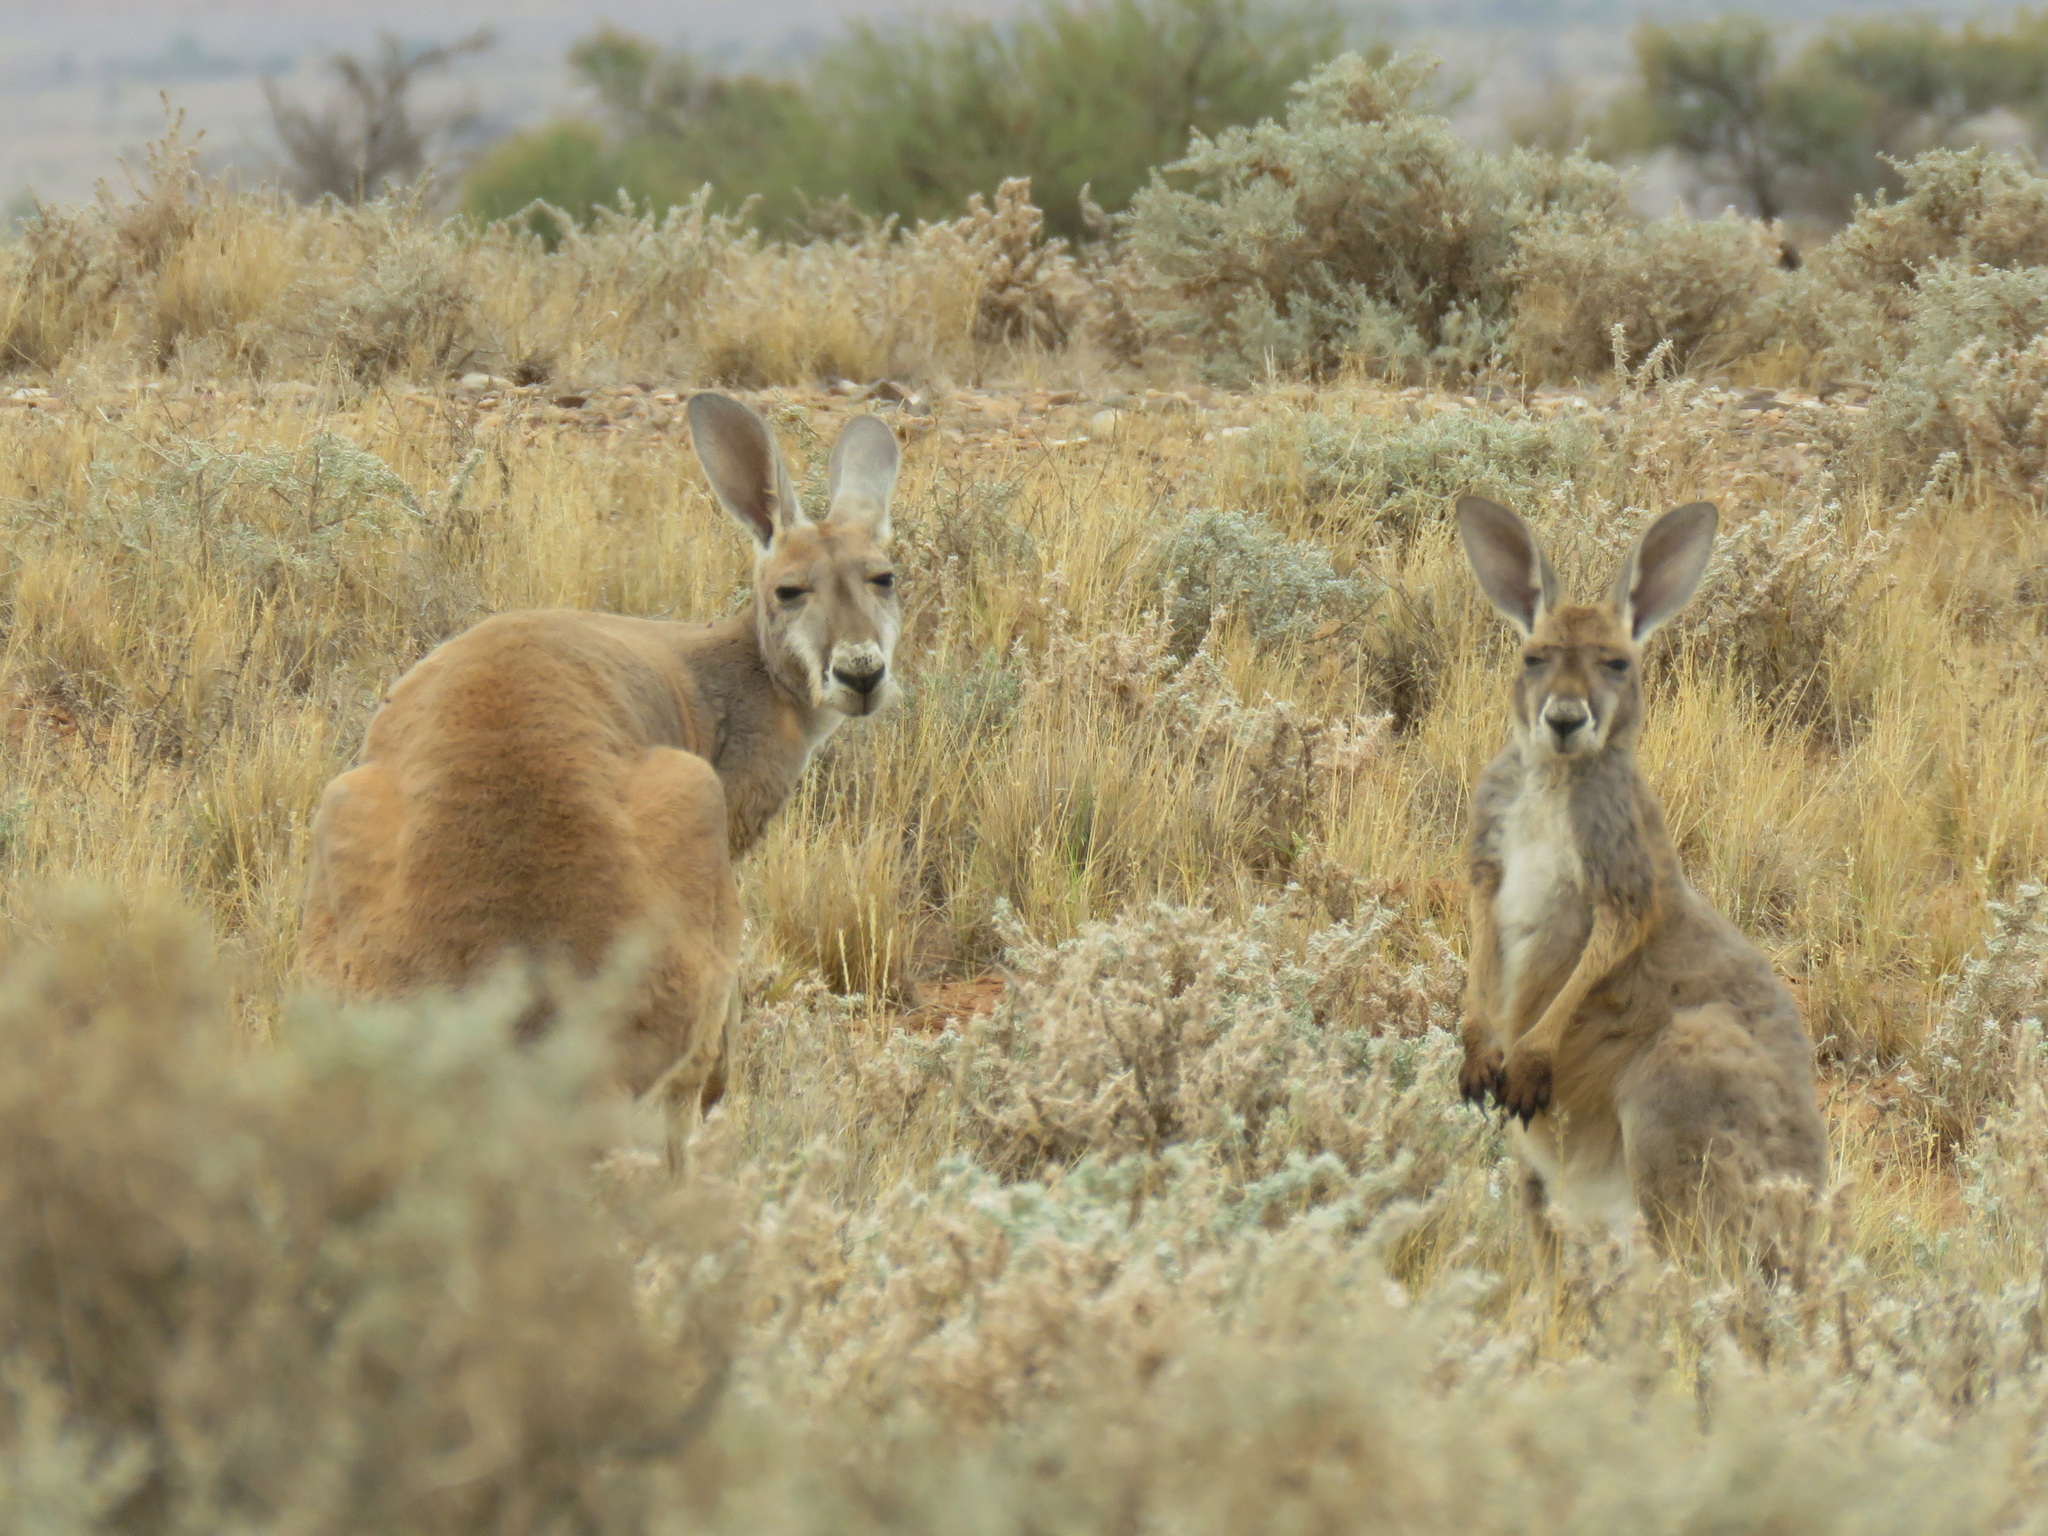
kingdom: Animalia
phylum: Chordata
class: Mammalia
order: Diprotodontia
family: Macropodidae
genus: Macropus
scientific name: Macropus rufus
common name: Red kangaroo
